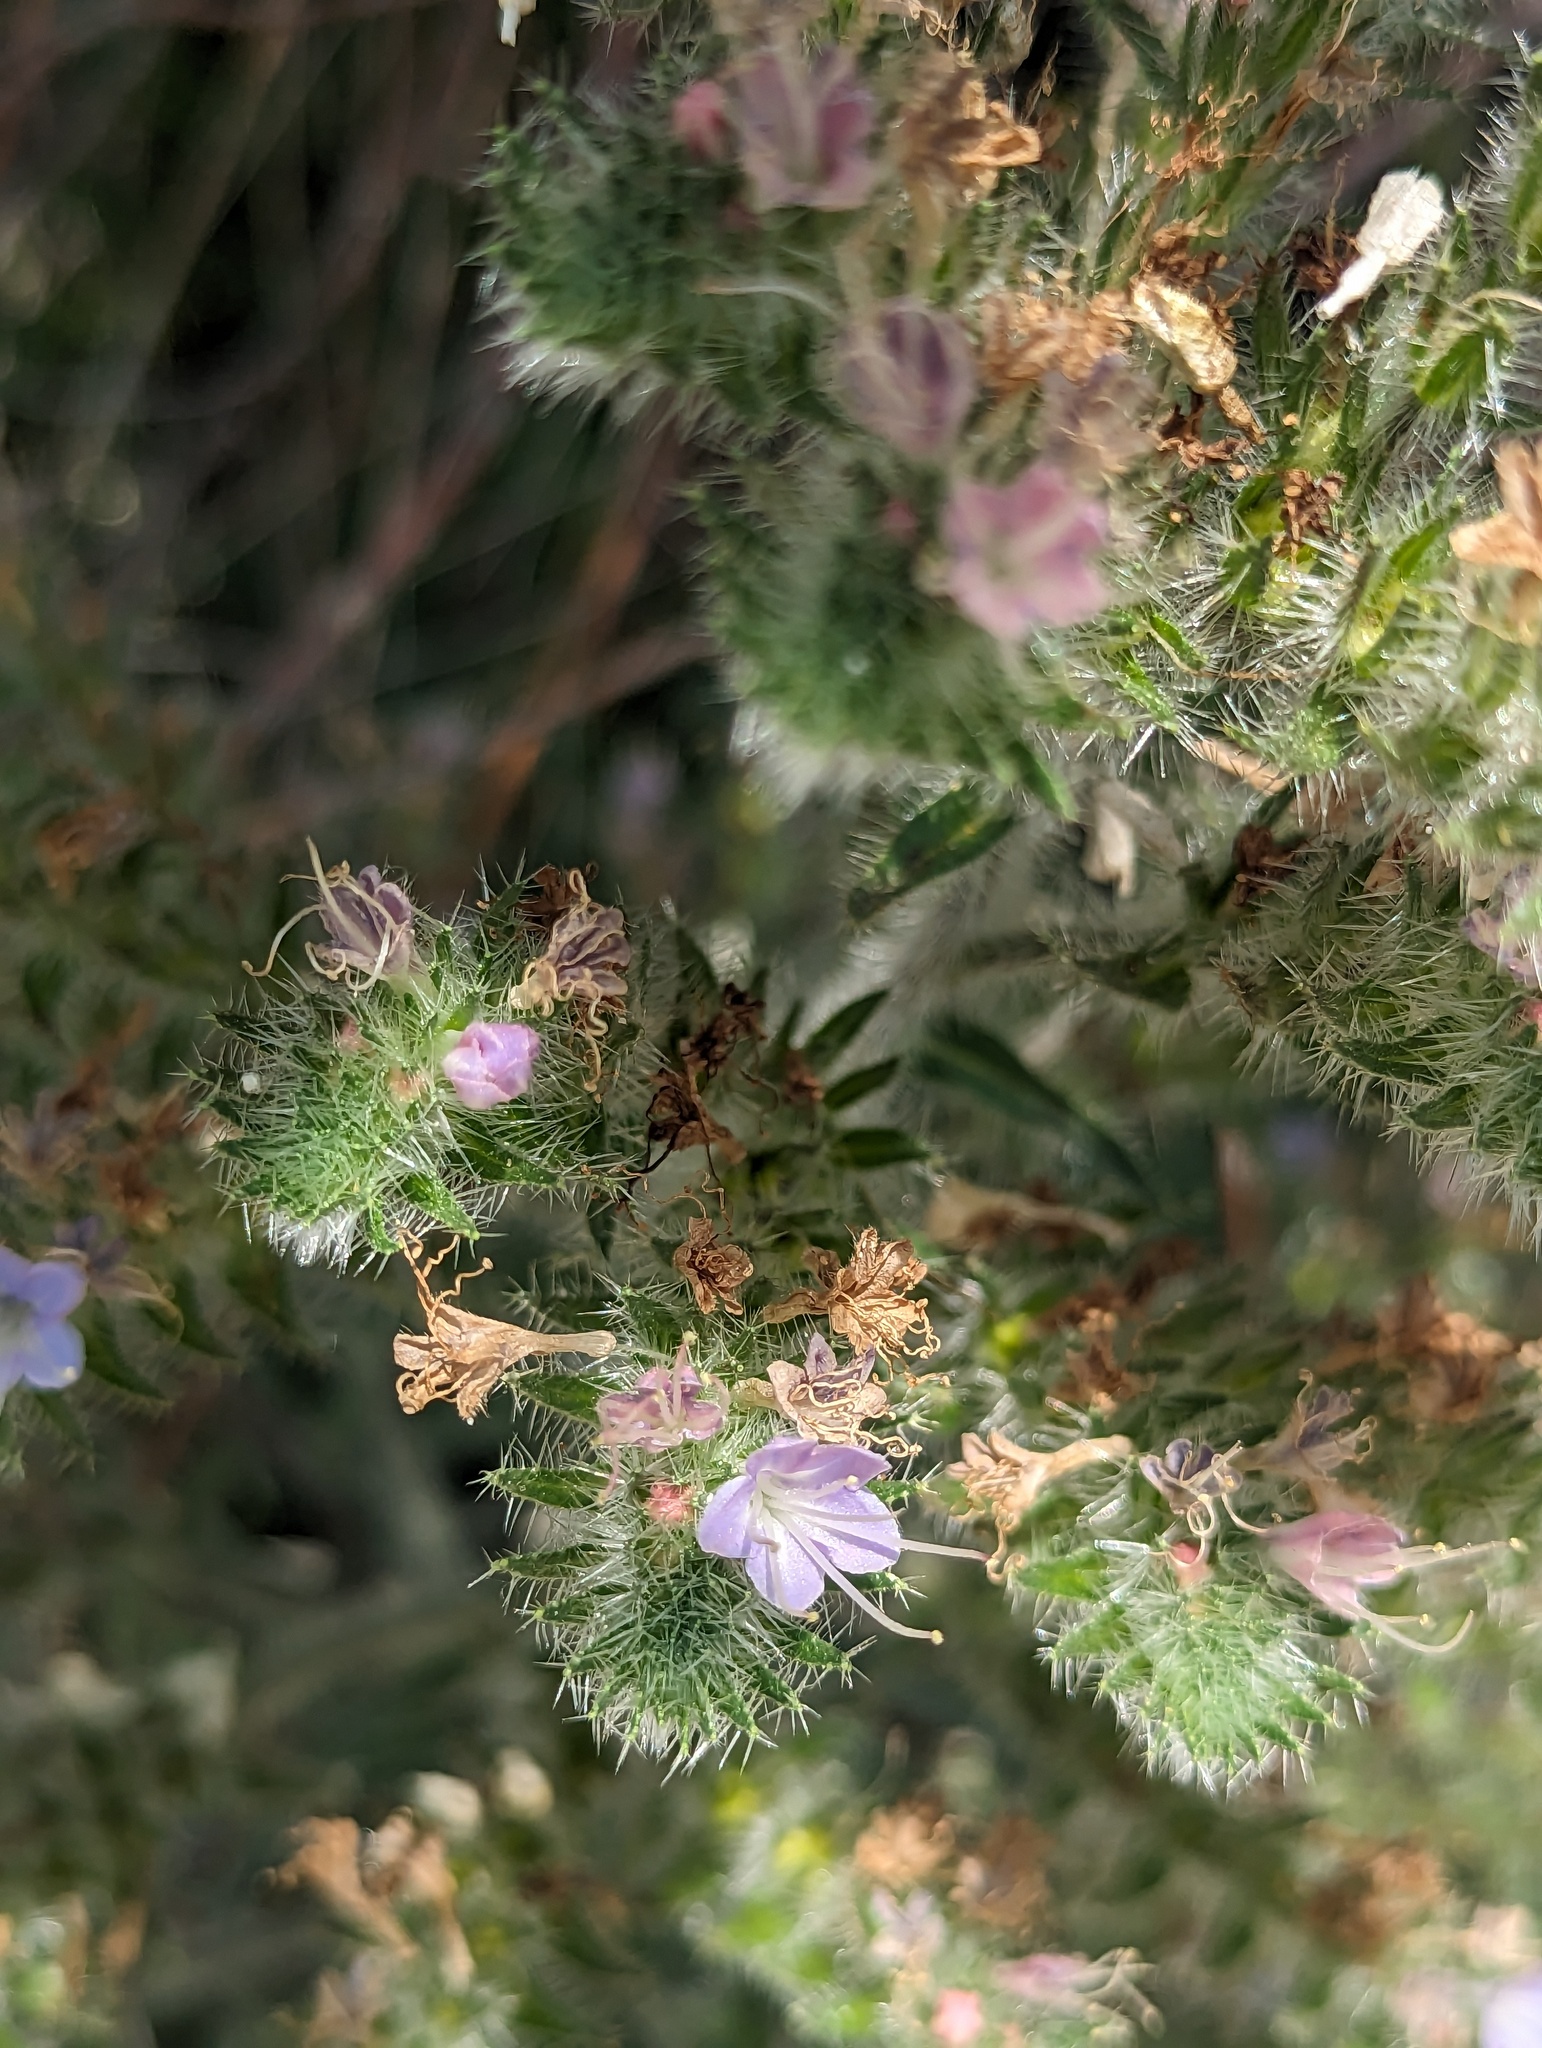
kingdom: Plantae
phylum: Tracheophyta
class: Magnoliopsida
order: Boraginales
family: Boraginaceae
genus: Echium
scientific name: Echium italicum
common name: Italian viper's bugloss
